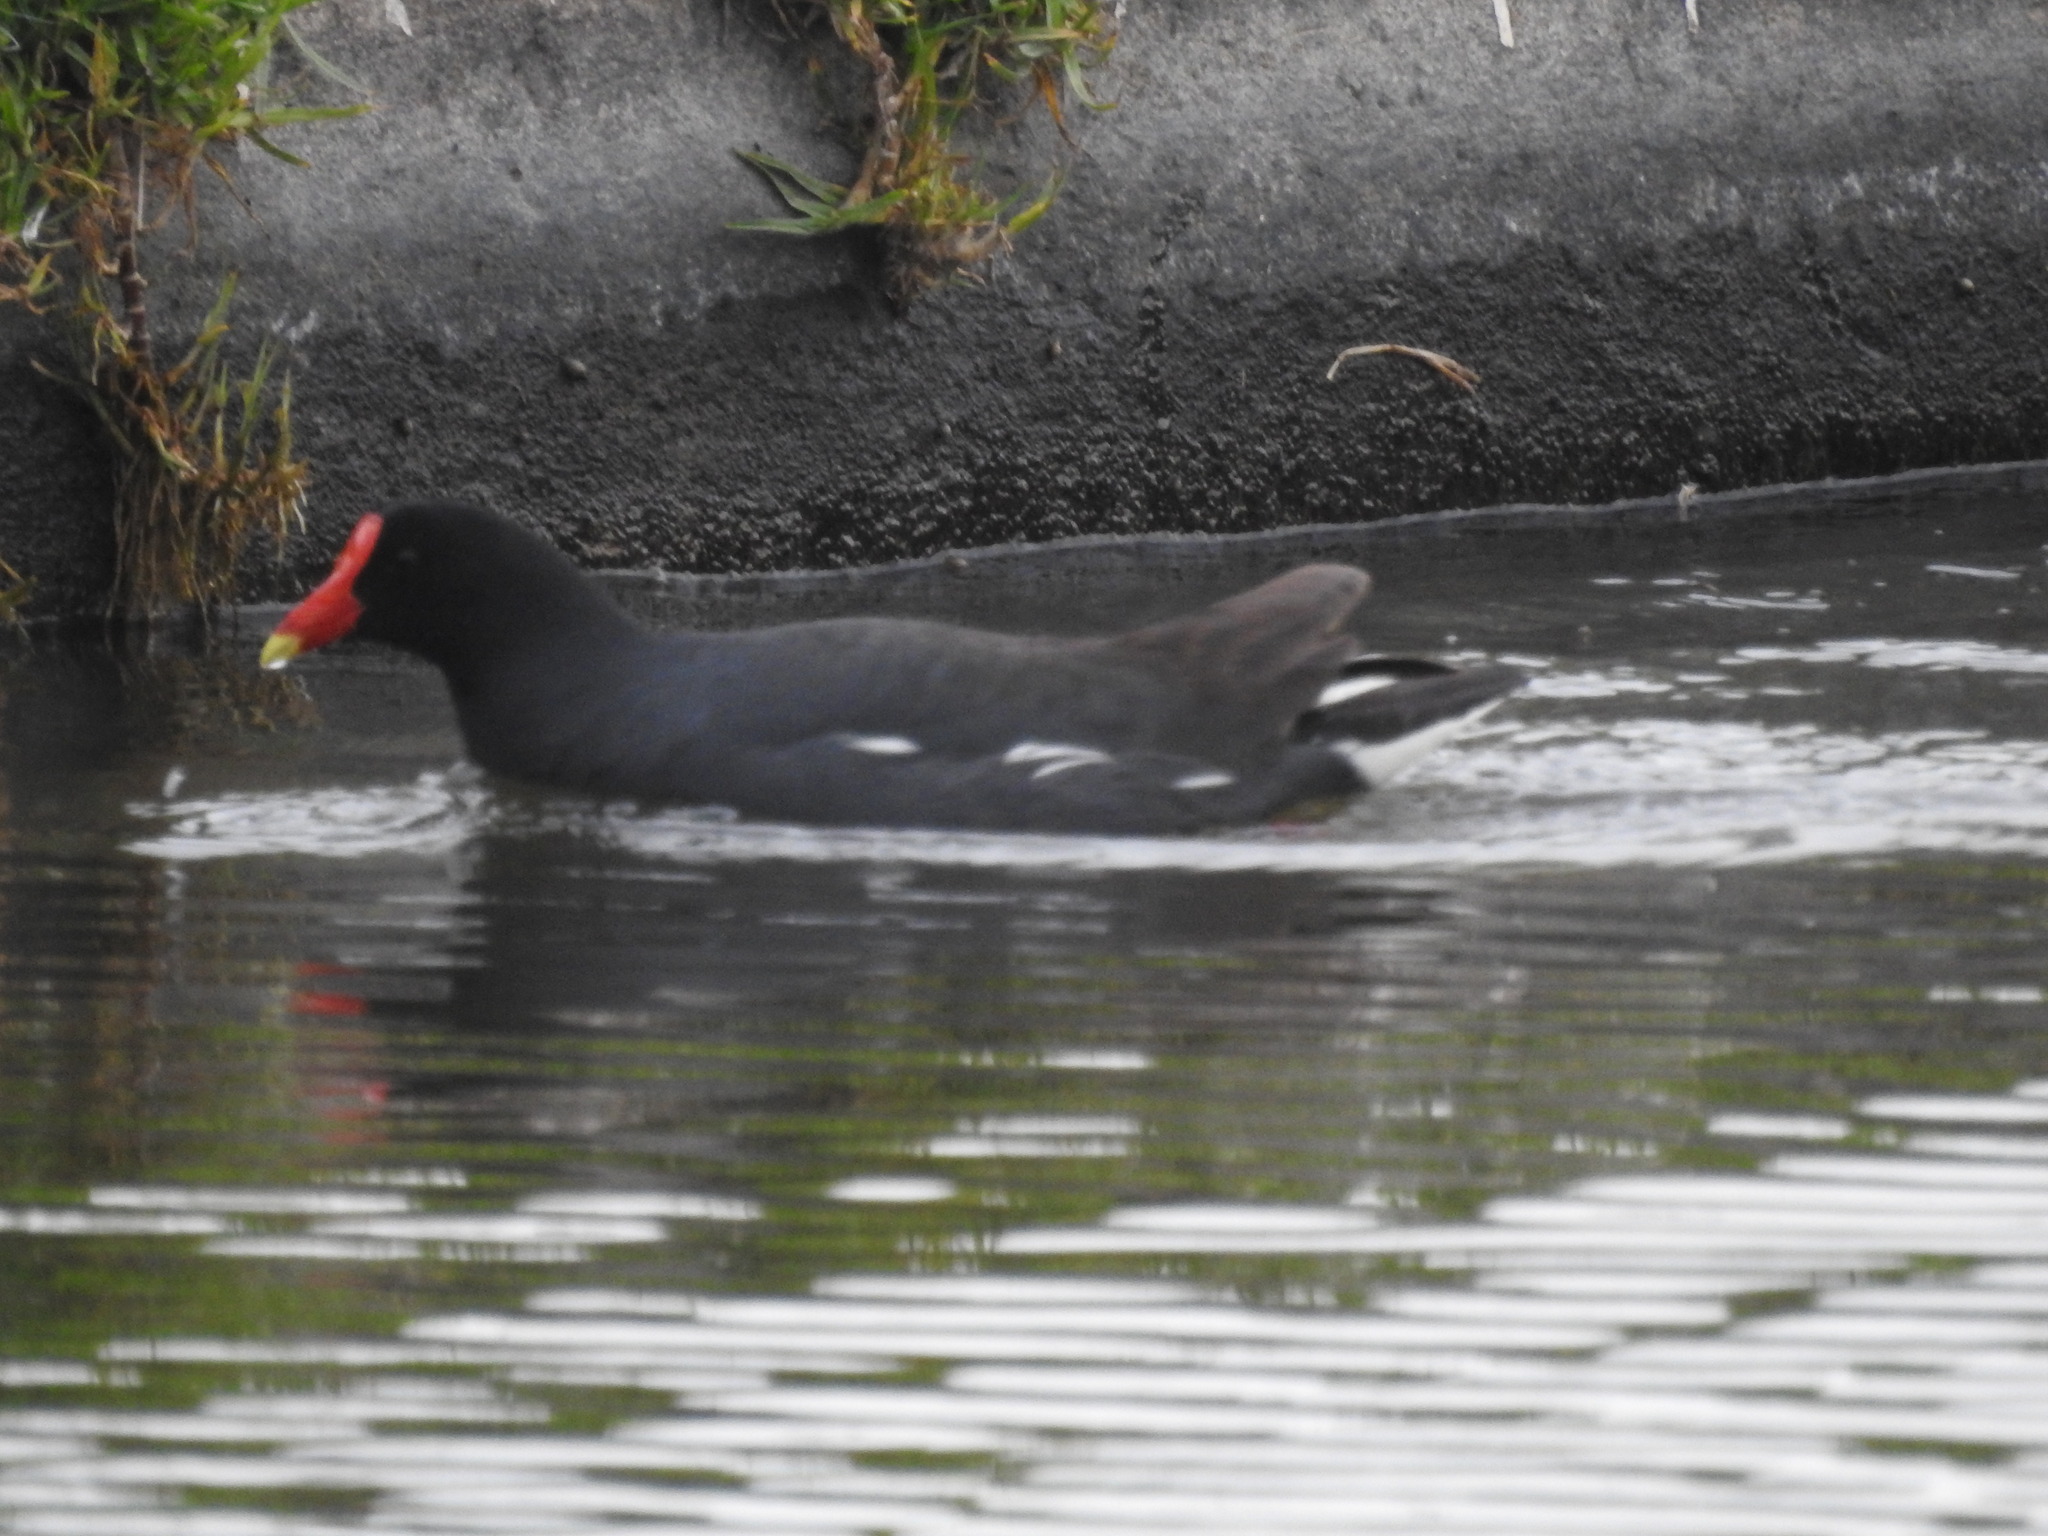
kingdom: Animalia
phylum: Chordata
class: Aves
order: Gruiformes
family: Rallidae
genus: Gallinula
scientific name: Gallinula chloropus
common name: Common moorhen
